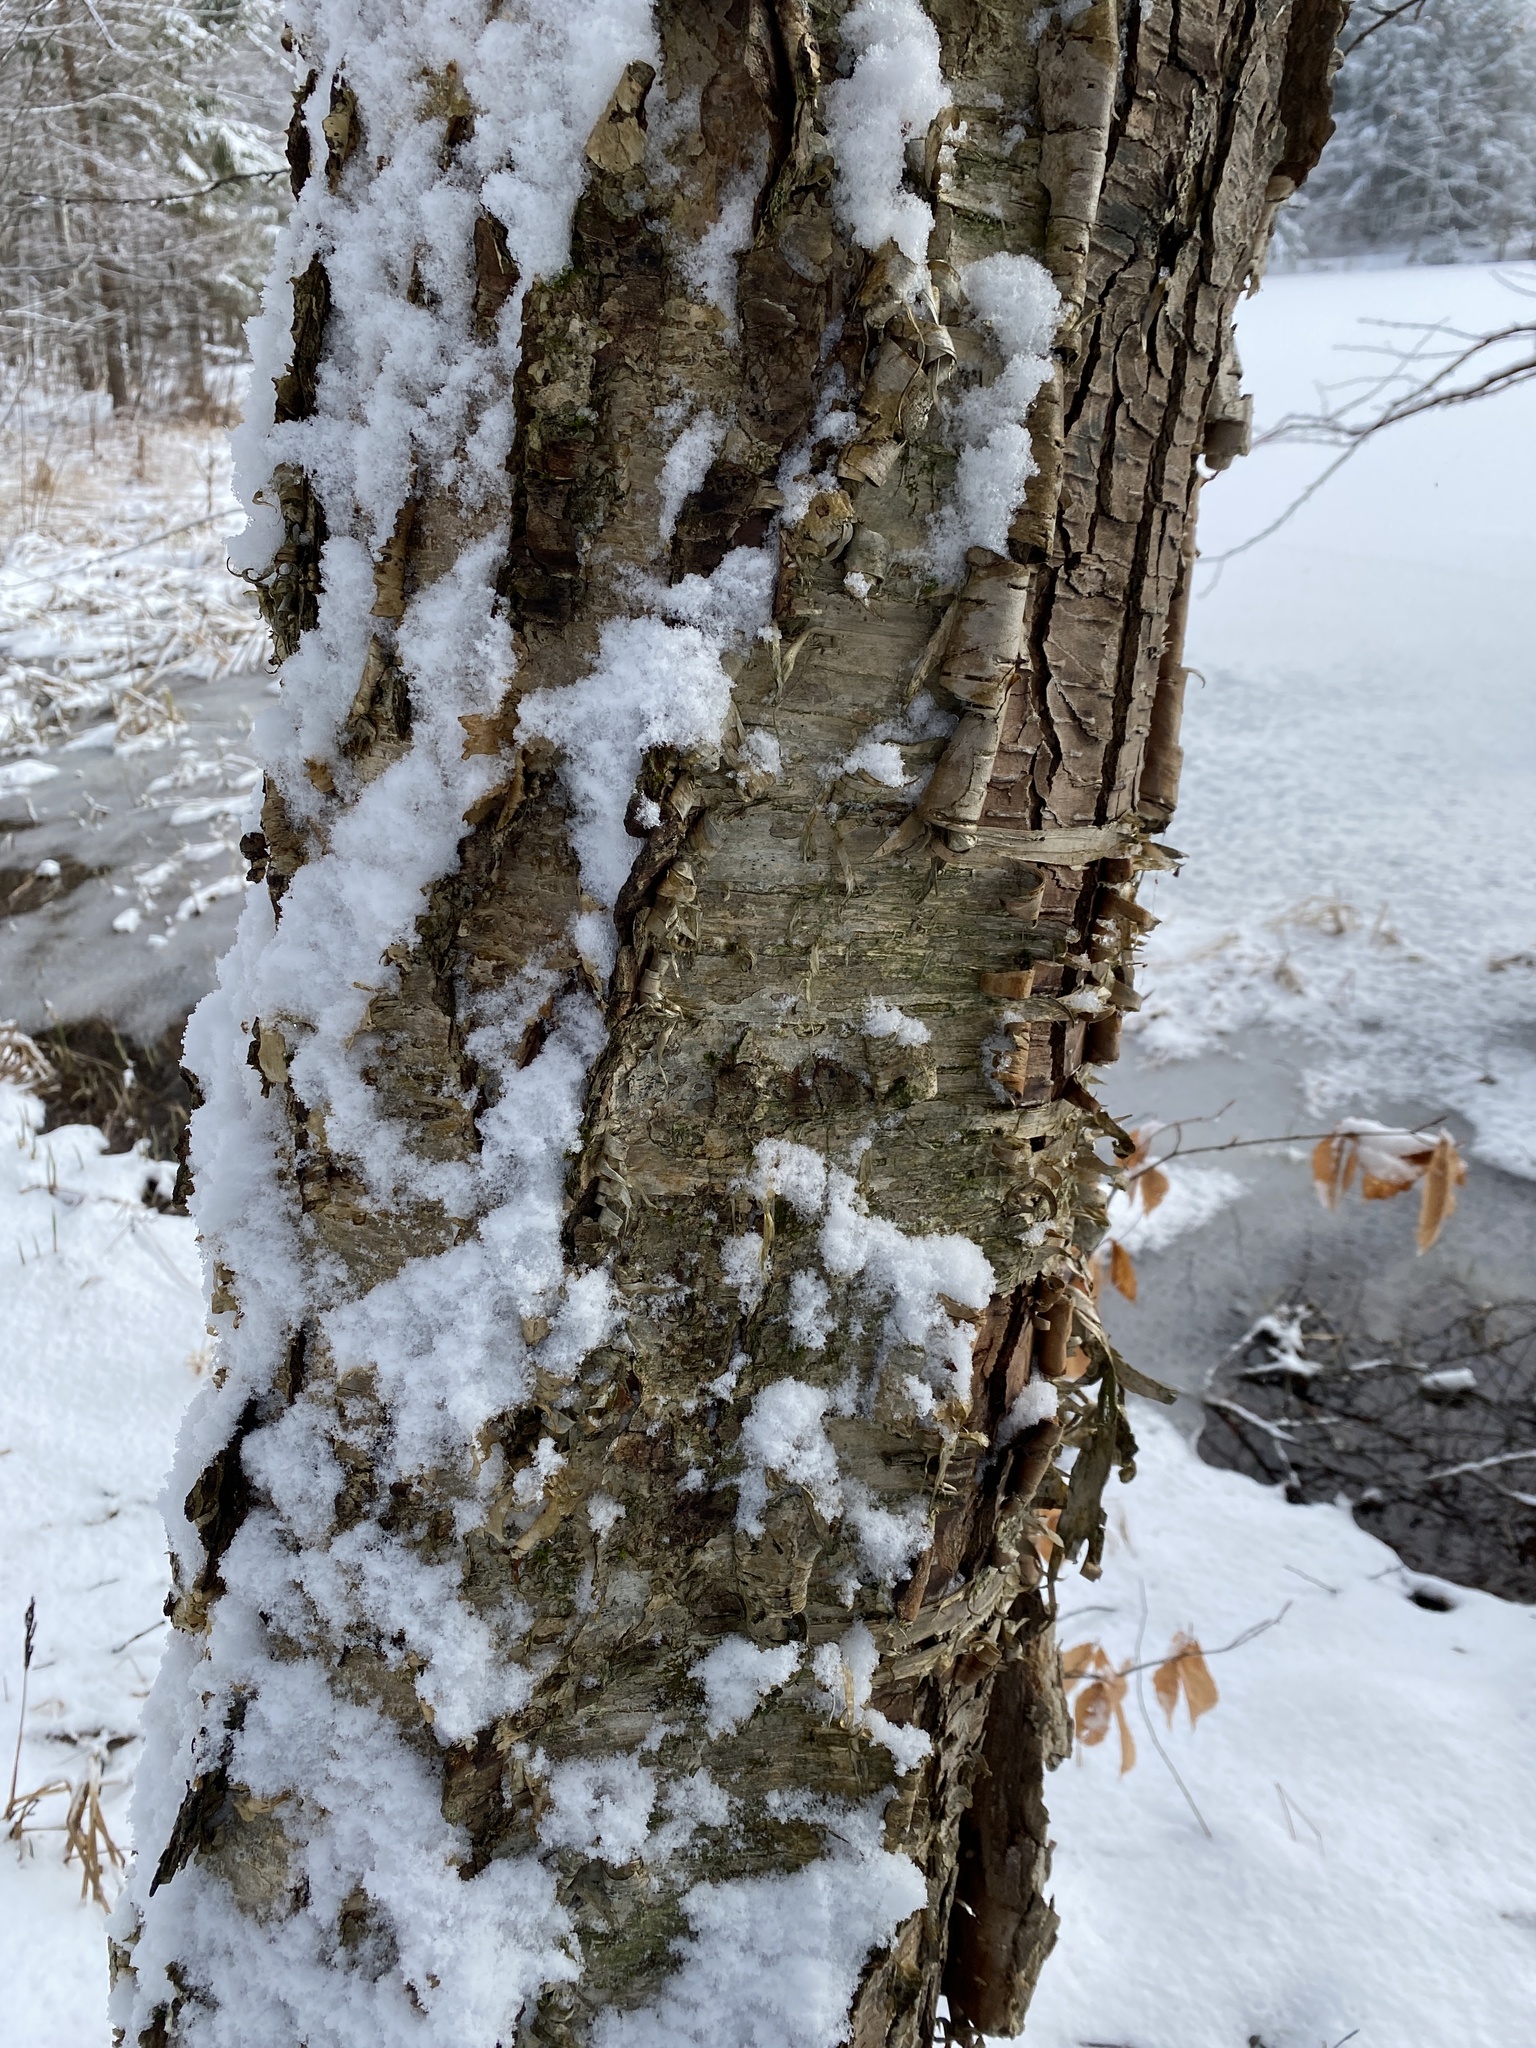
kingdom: Plantae
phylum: Tracheophyta
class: Magnoliopsida
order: Fagales
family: Betulaceae
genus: Betula
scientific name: Betula alleghaniensis
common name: Yellow birch
